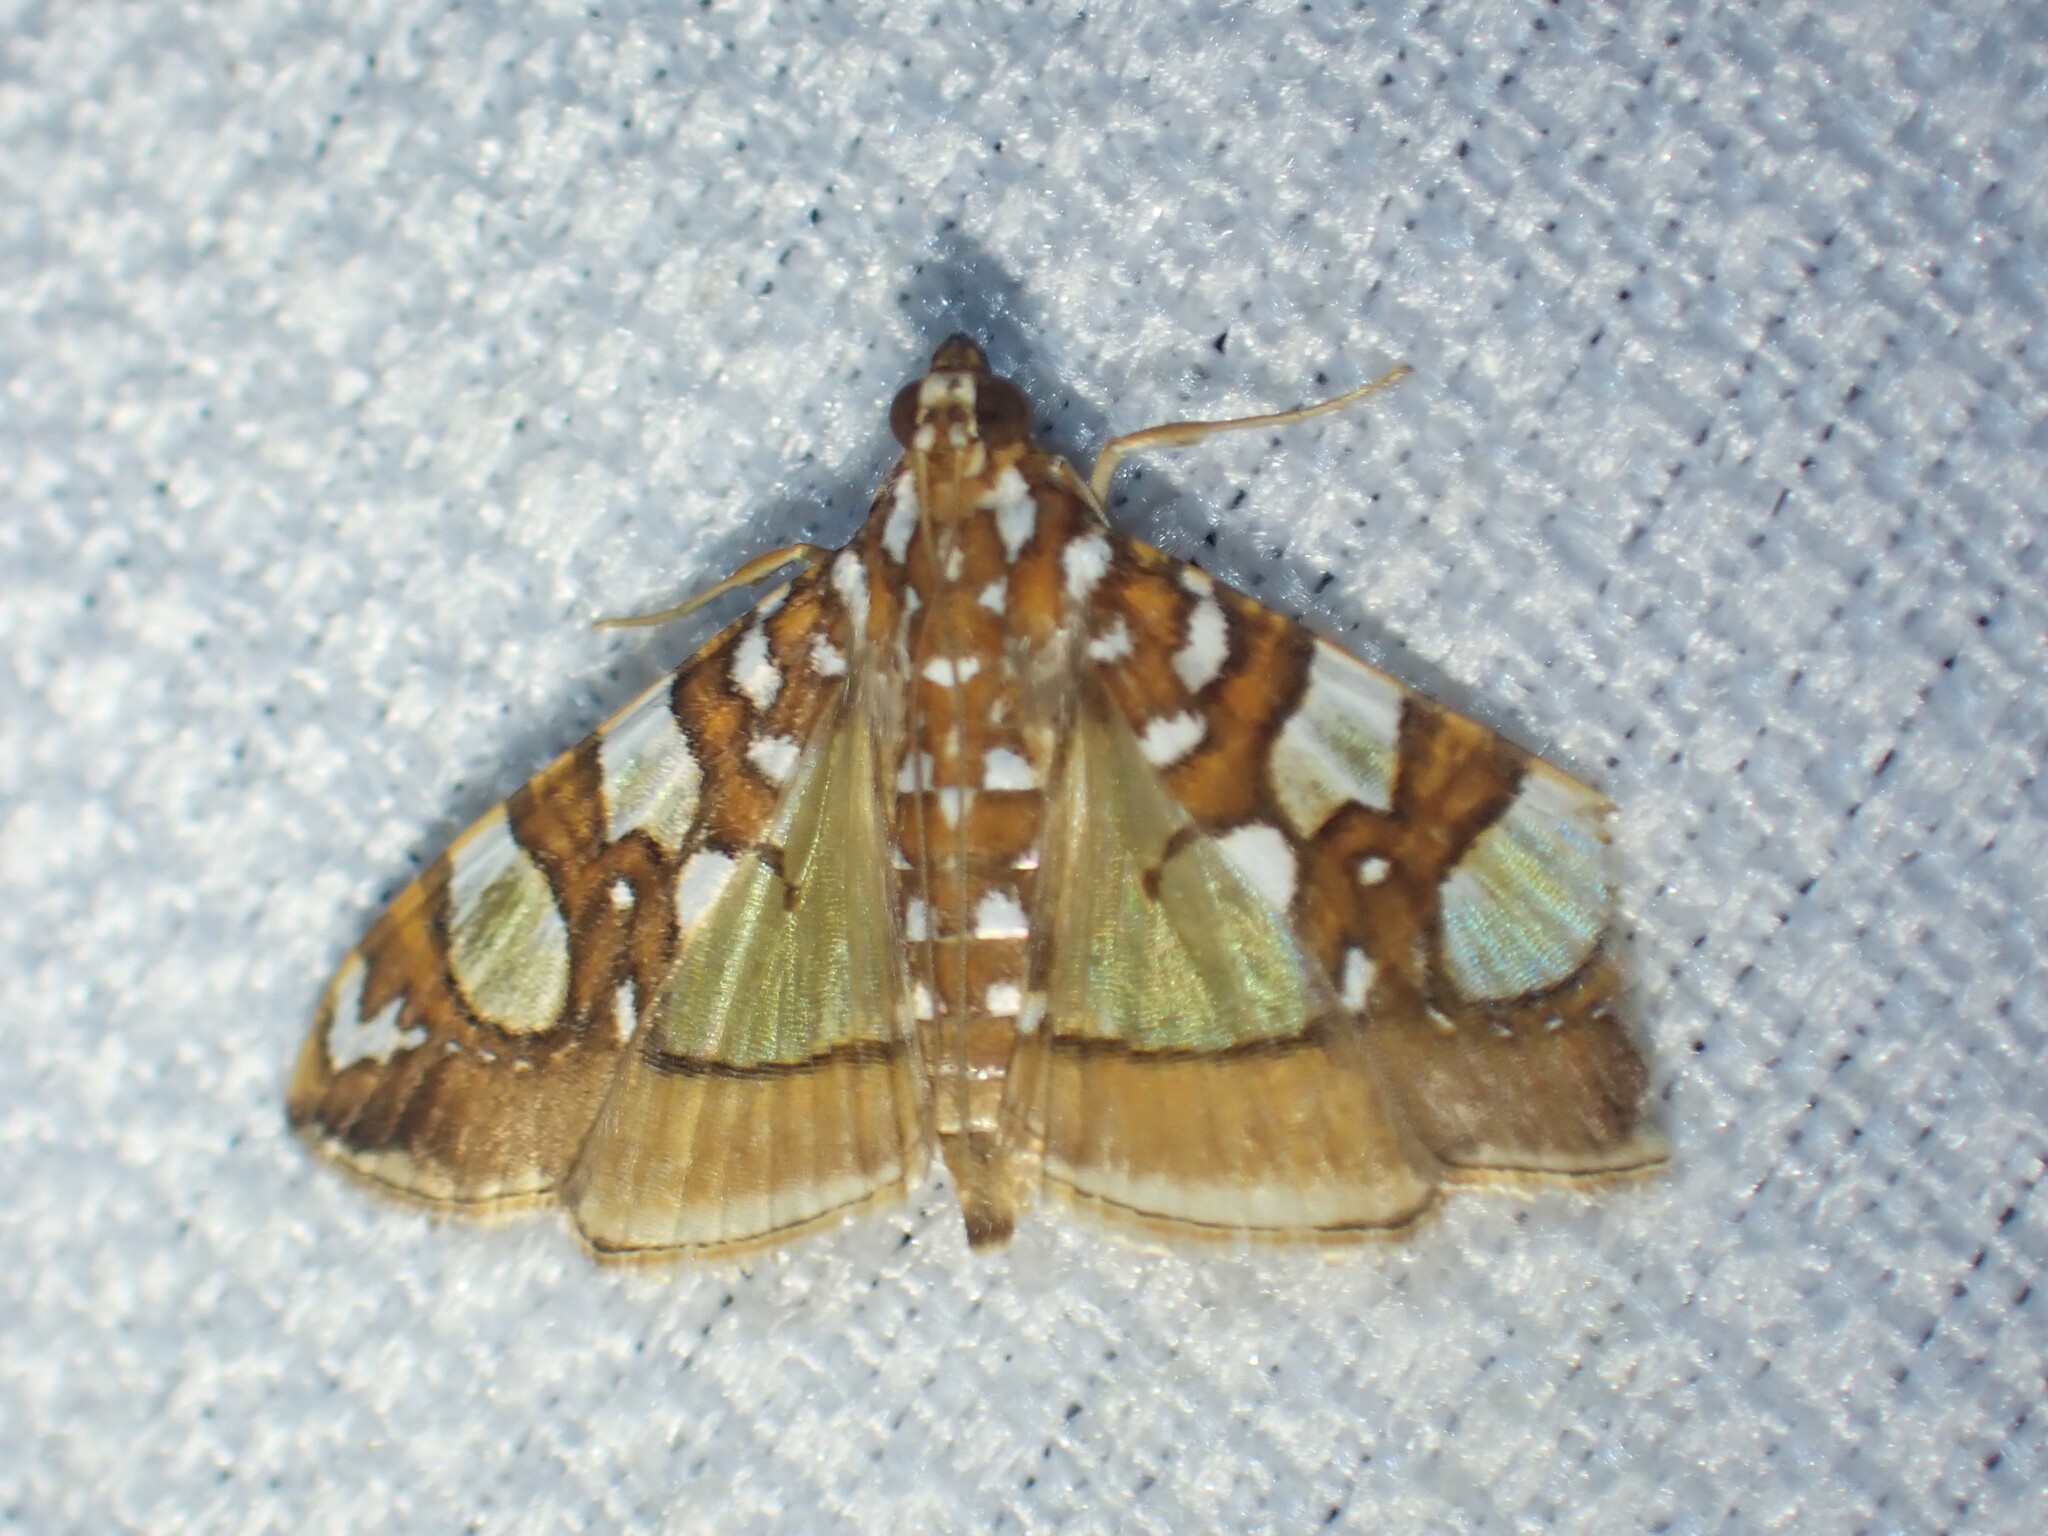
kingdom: Animalia
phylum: Arthropoda
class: Insecta
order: Lepidoptera
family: Crambidae
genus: Glyphodes
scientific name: Glyphodes sibillalis
